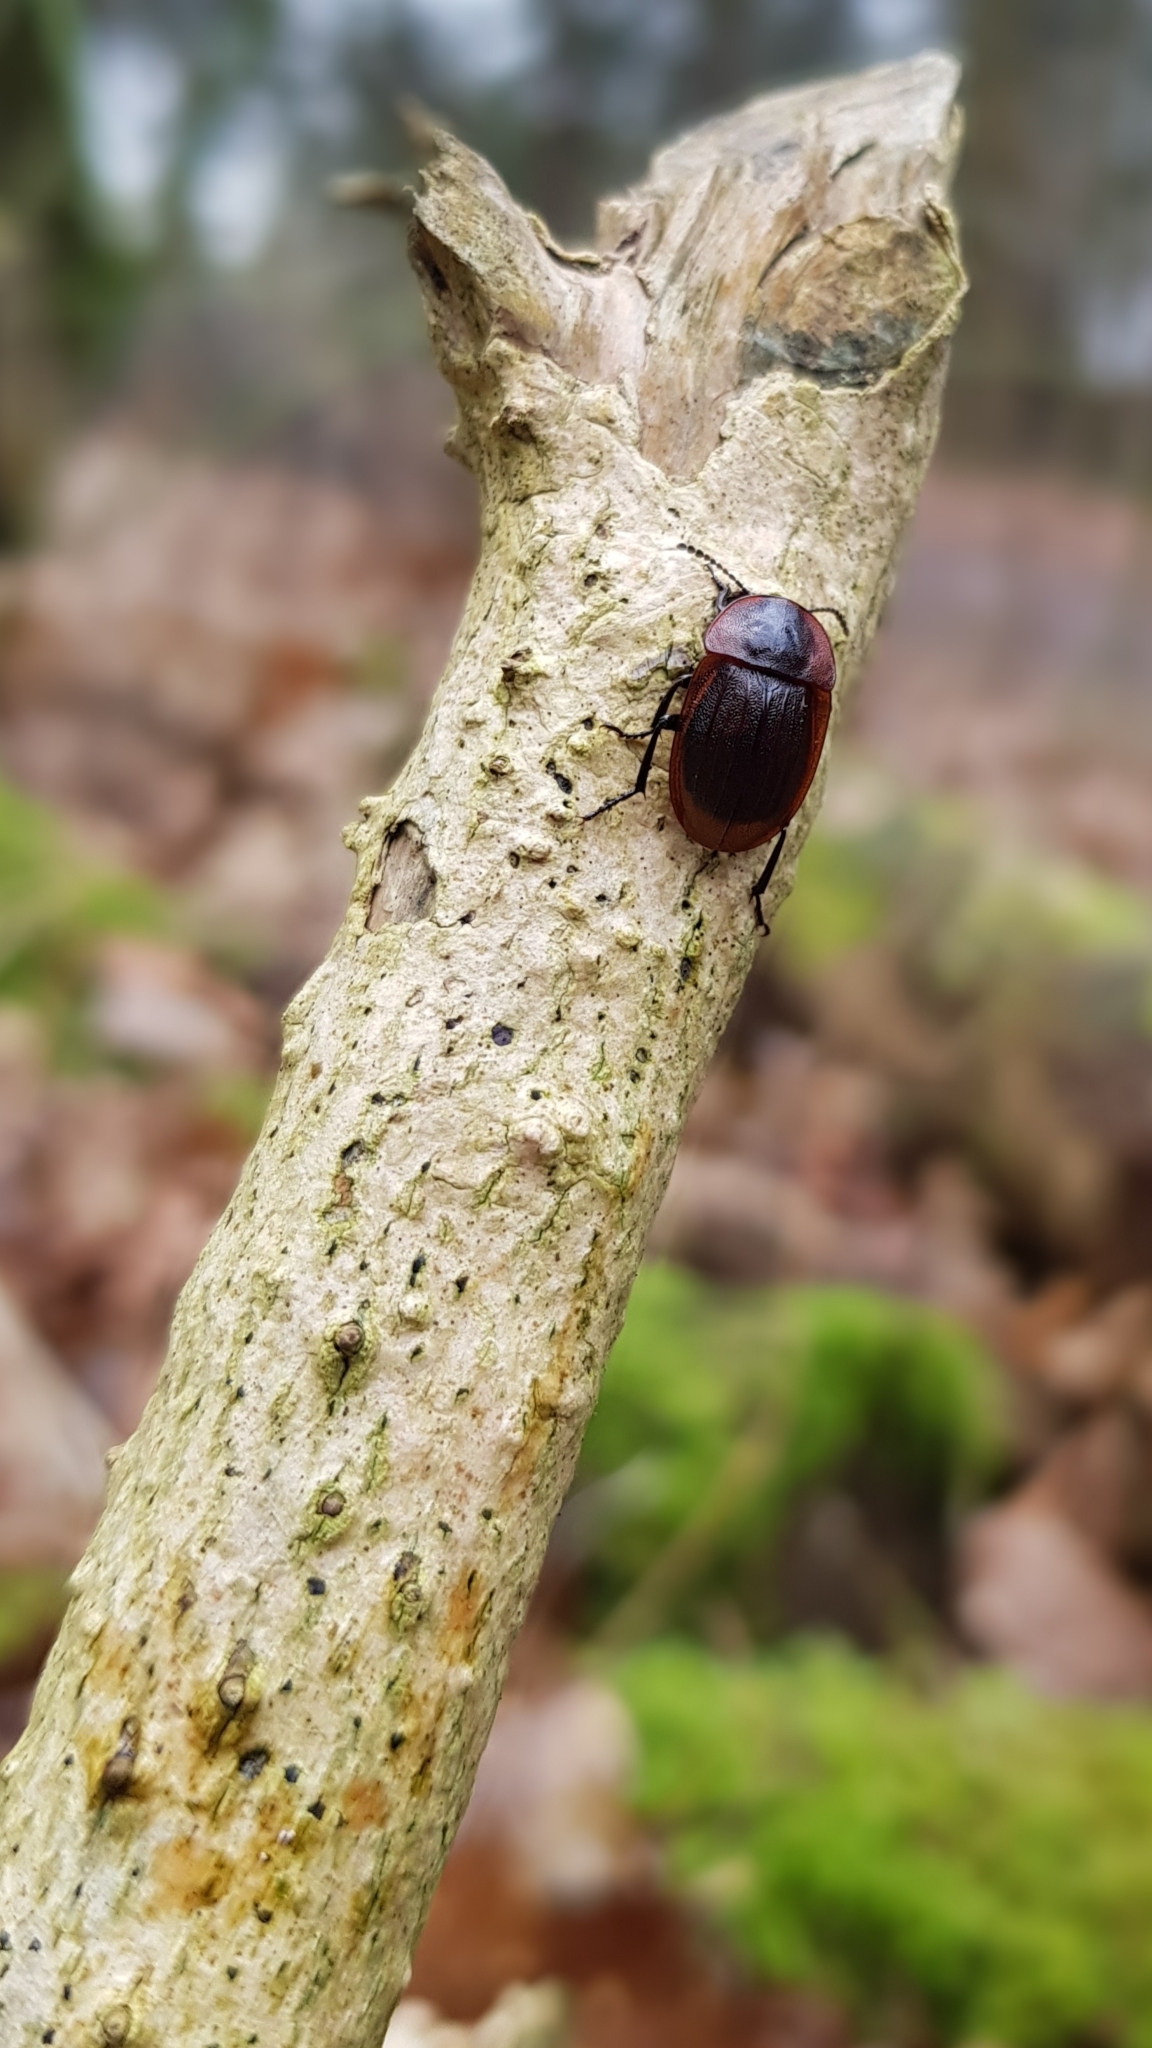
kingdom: Animalia
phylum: Arthropoda
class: Insecta
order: Coleoptera
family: Staphylinidae
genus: Silpha
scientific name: Silpha atrata
